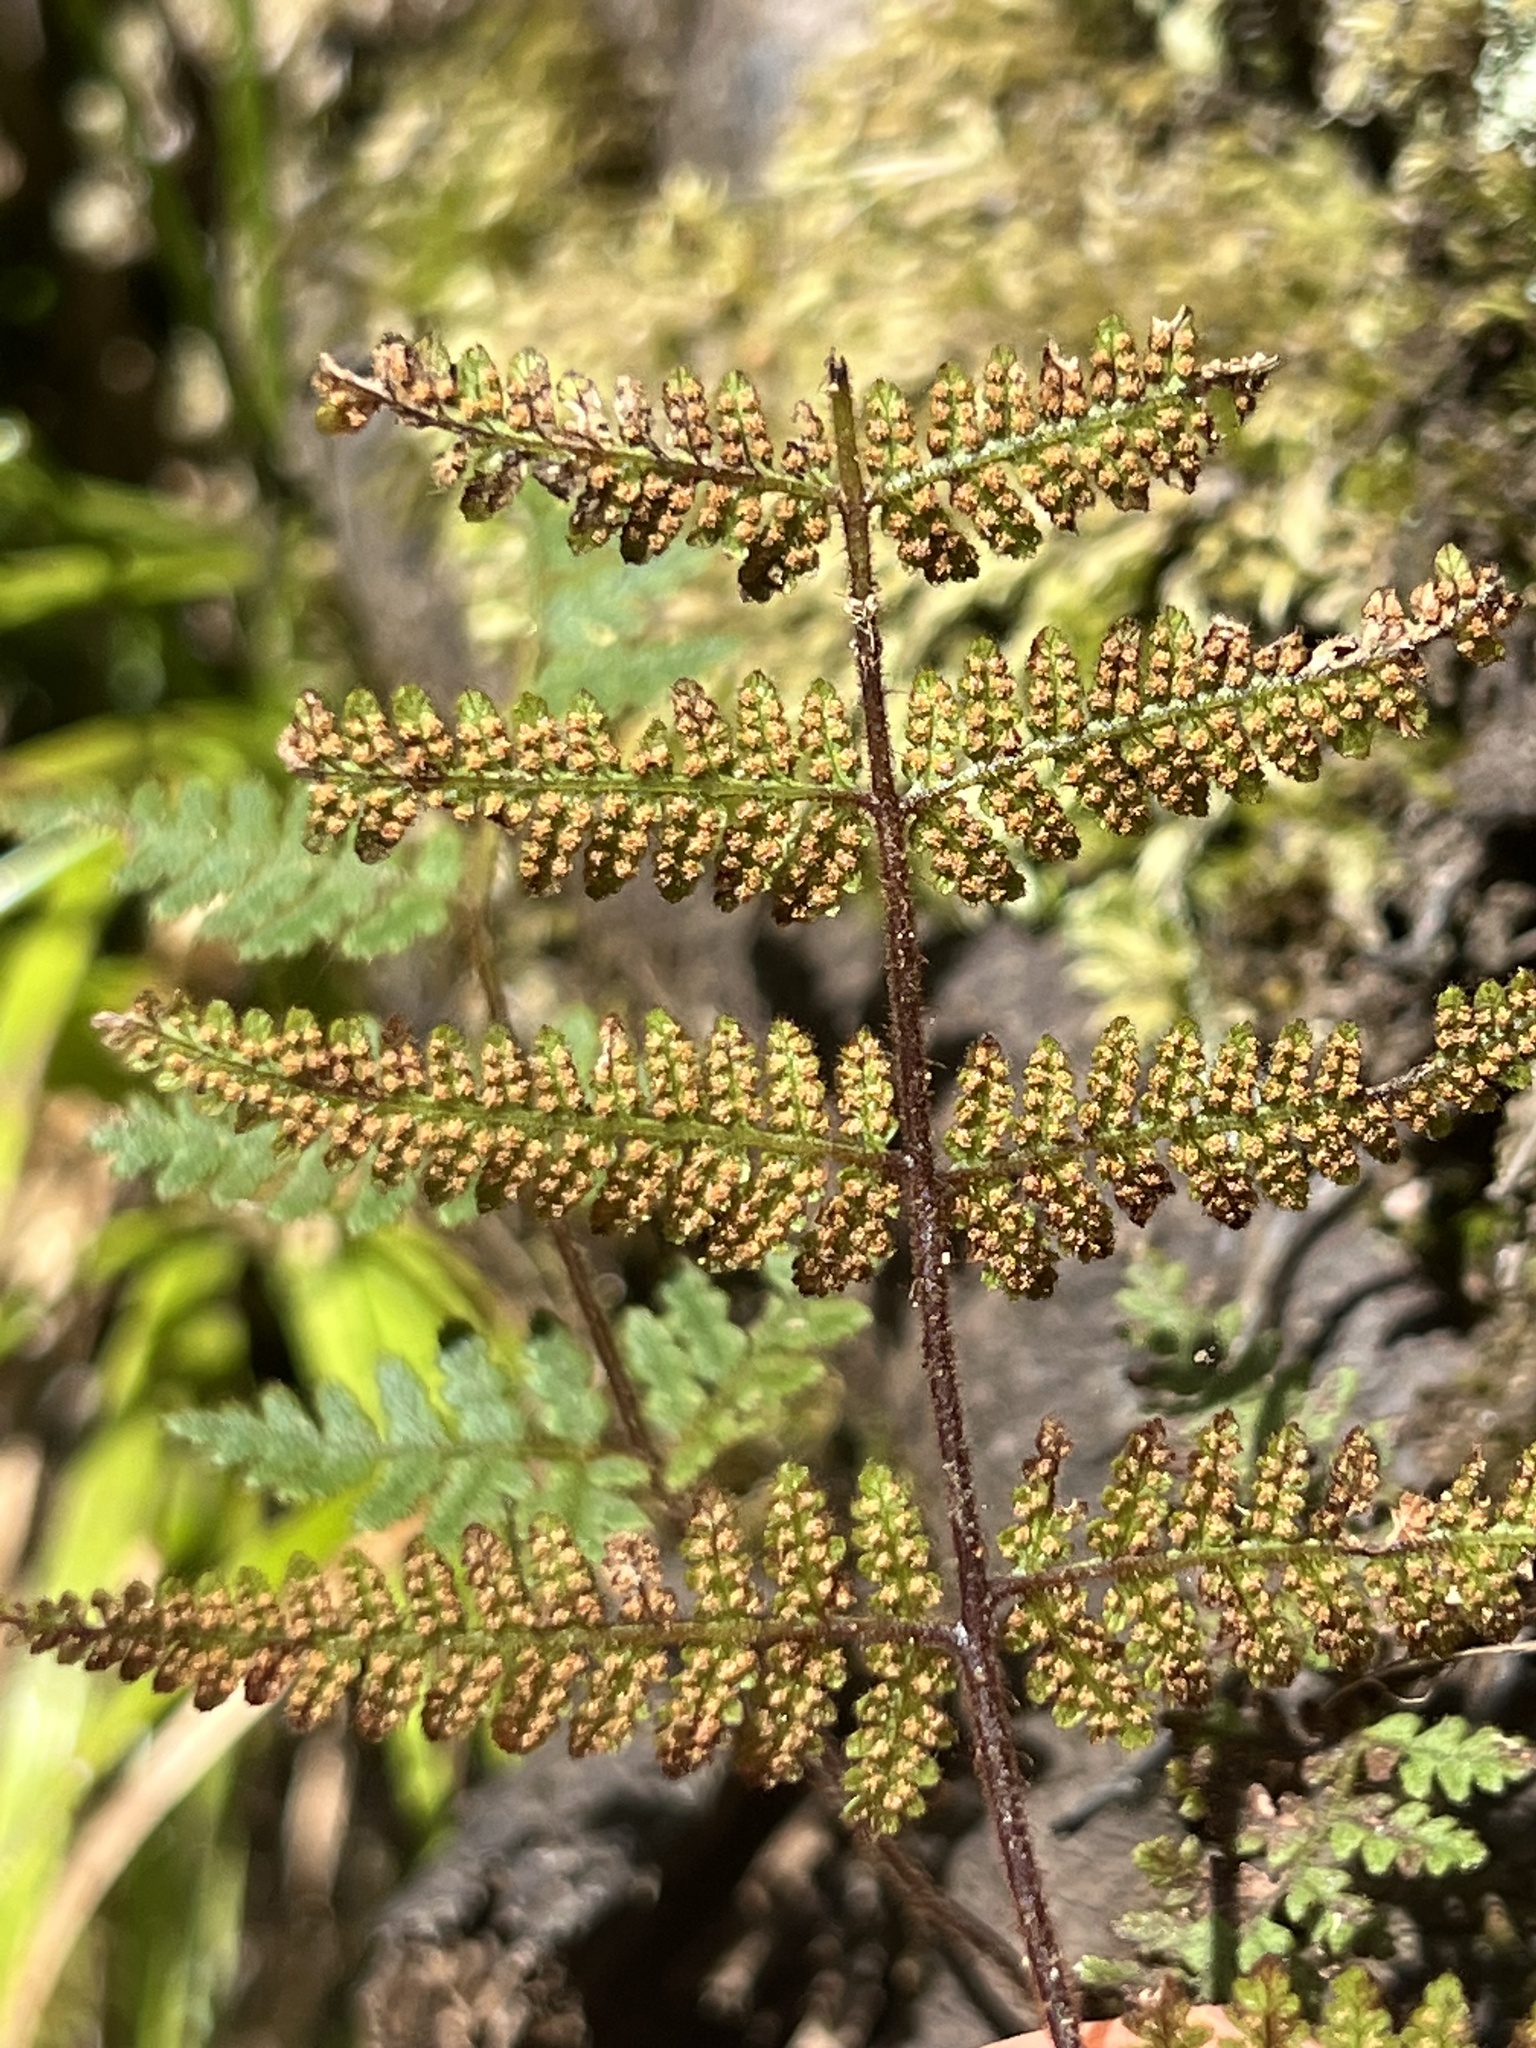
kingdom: Plantae
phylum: Tracheophyta
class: Polypodiopsida
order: Polypodiales
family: Dennstaedtiaceae
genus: Hypolepis
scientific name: Hypolepis rugosula
